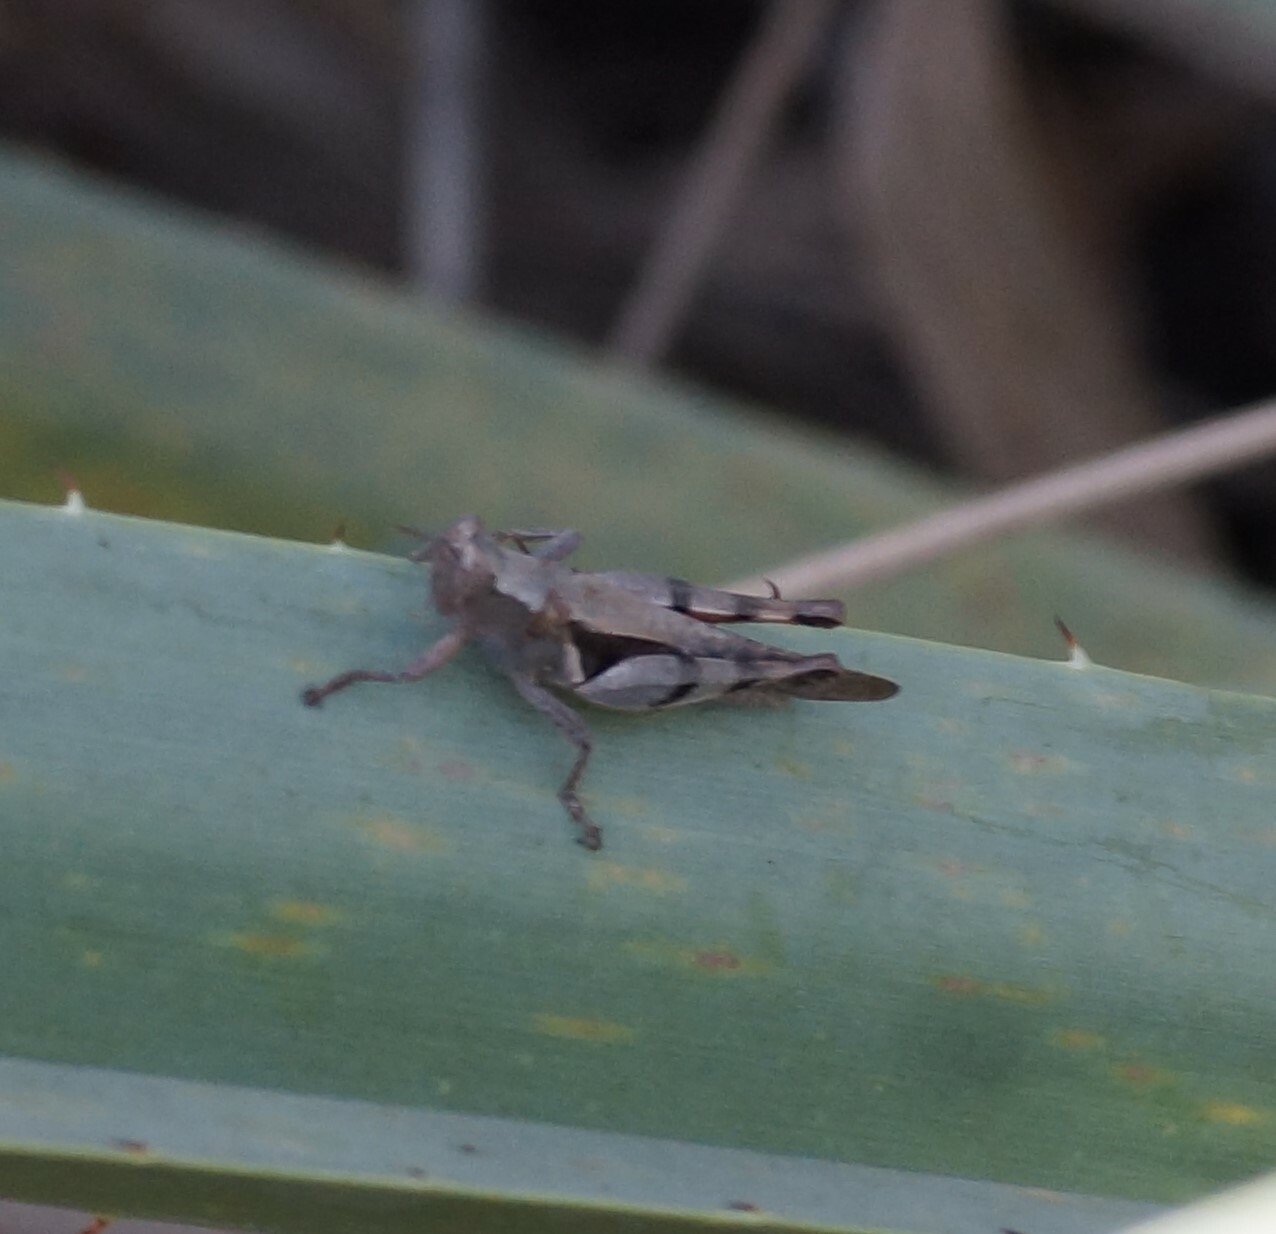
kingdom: Animalia
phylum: Arthropoda
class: Insecta
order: Orthoptera
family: Acrididae
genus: Stenocatantops
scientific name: Stenocatantops angustifrons
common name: Common tropical sharptail
